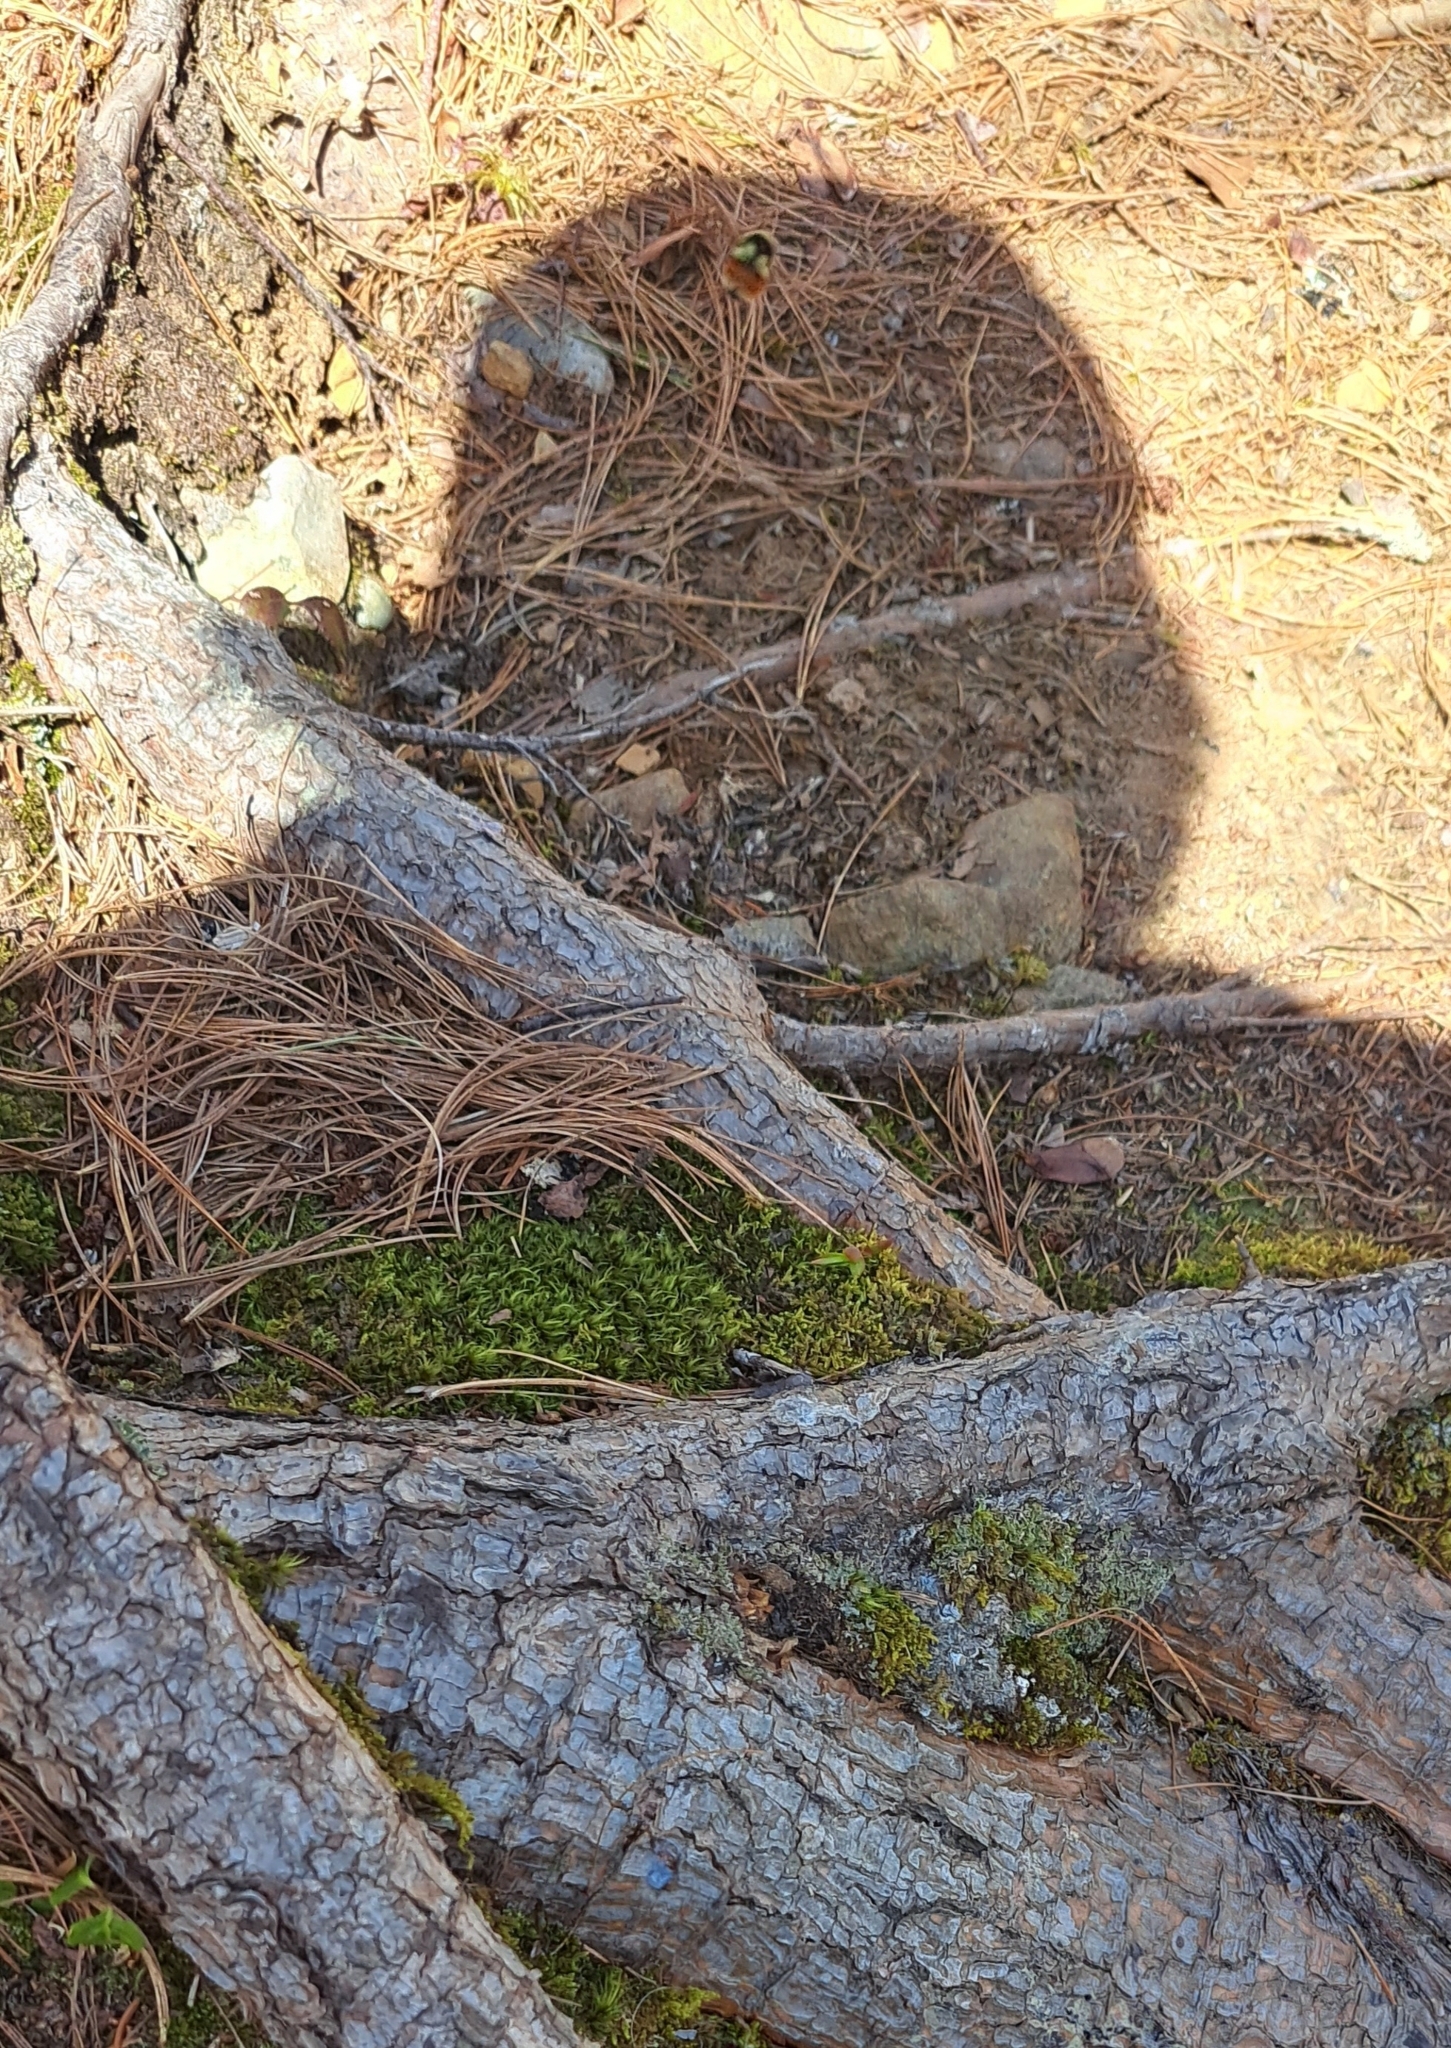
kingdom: Animalia
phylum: Arthropoda
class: Insecta
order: Hymenoptera
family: Apidae
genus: Bombus
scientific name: Bombus ternarius
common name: Tri-colored bumble bee
